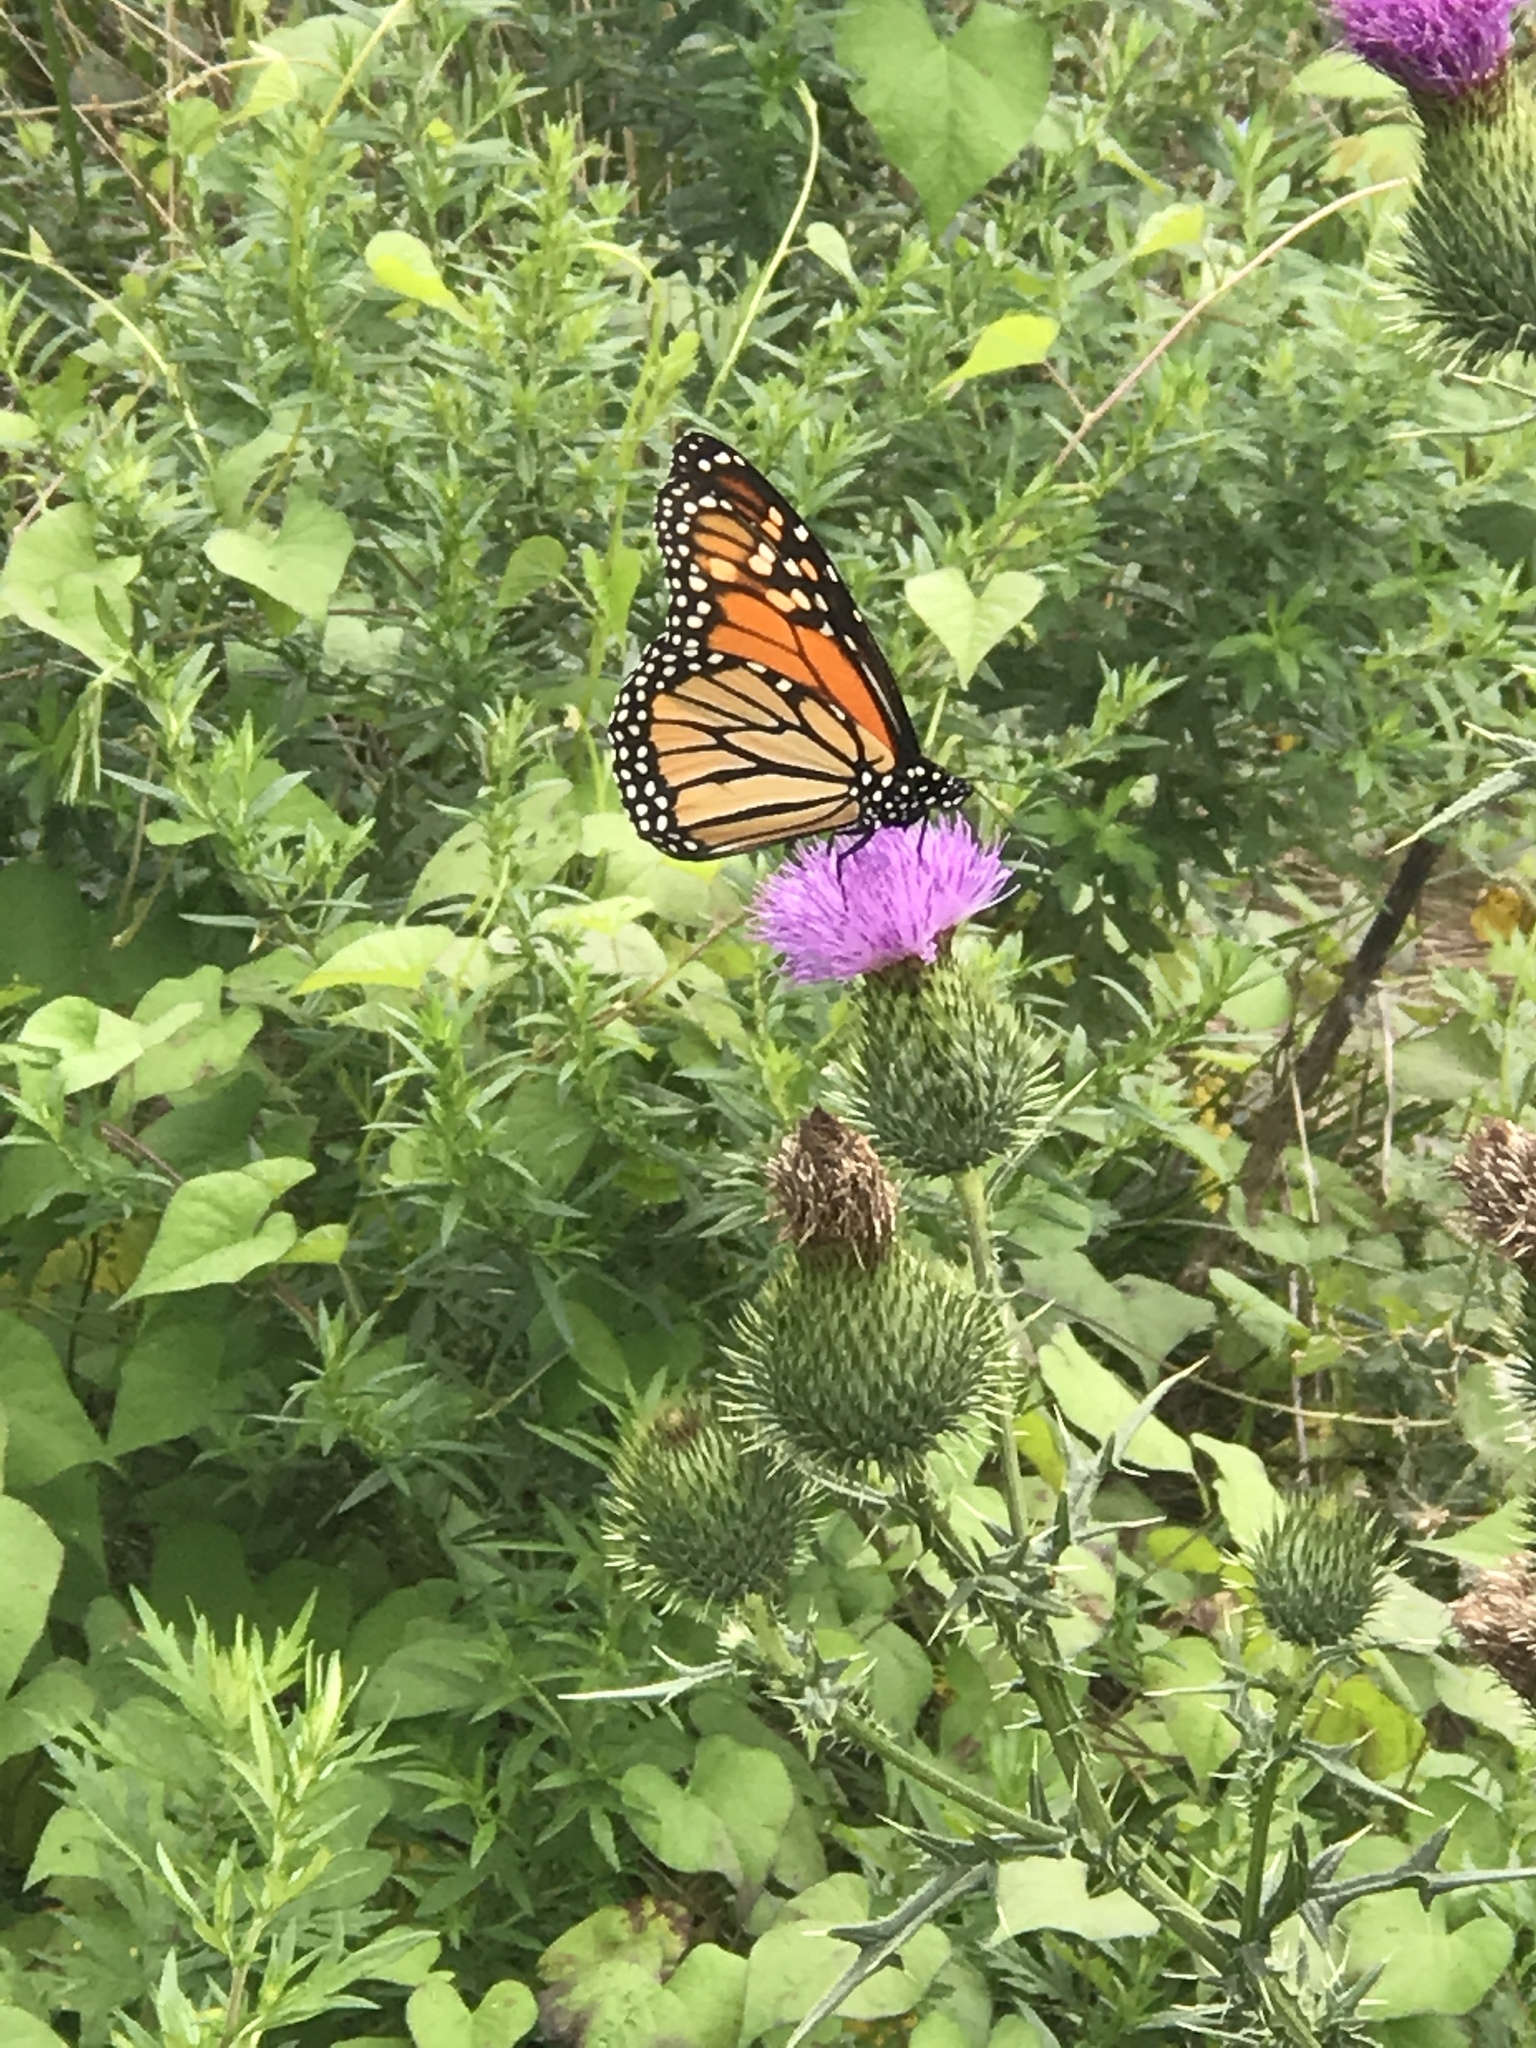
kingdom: Animalia
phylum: Arthropoda
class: Insecta
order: Lepidoptera
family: Nymphalidae
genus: Danaus
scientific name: Danaus plexippus
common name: Monarch
